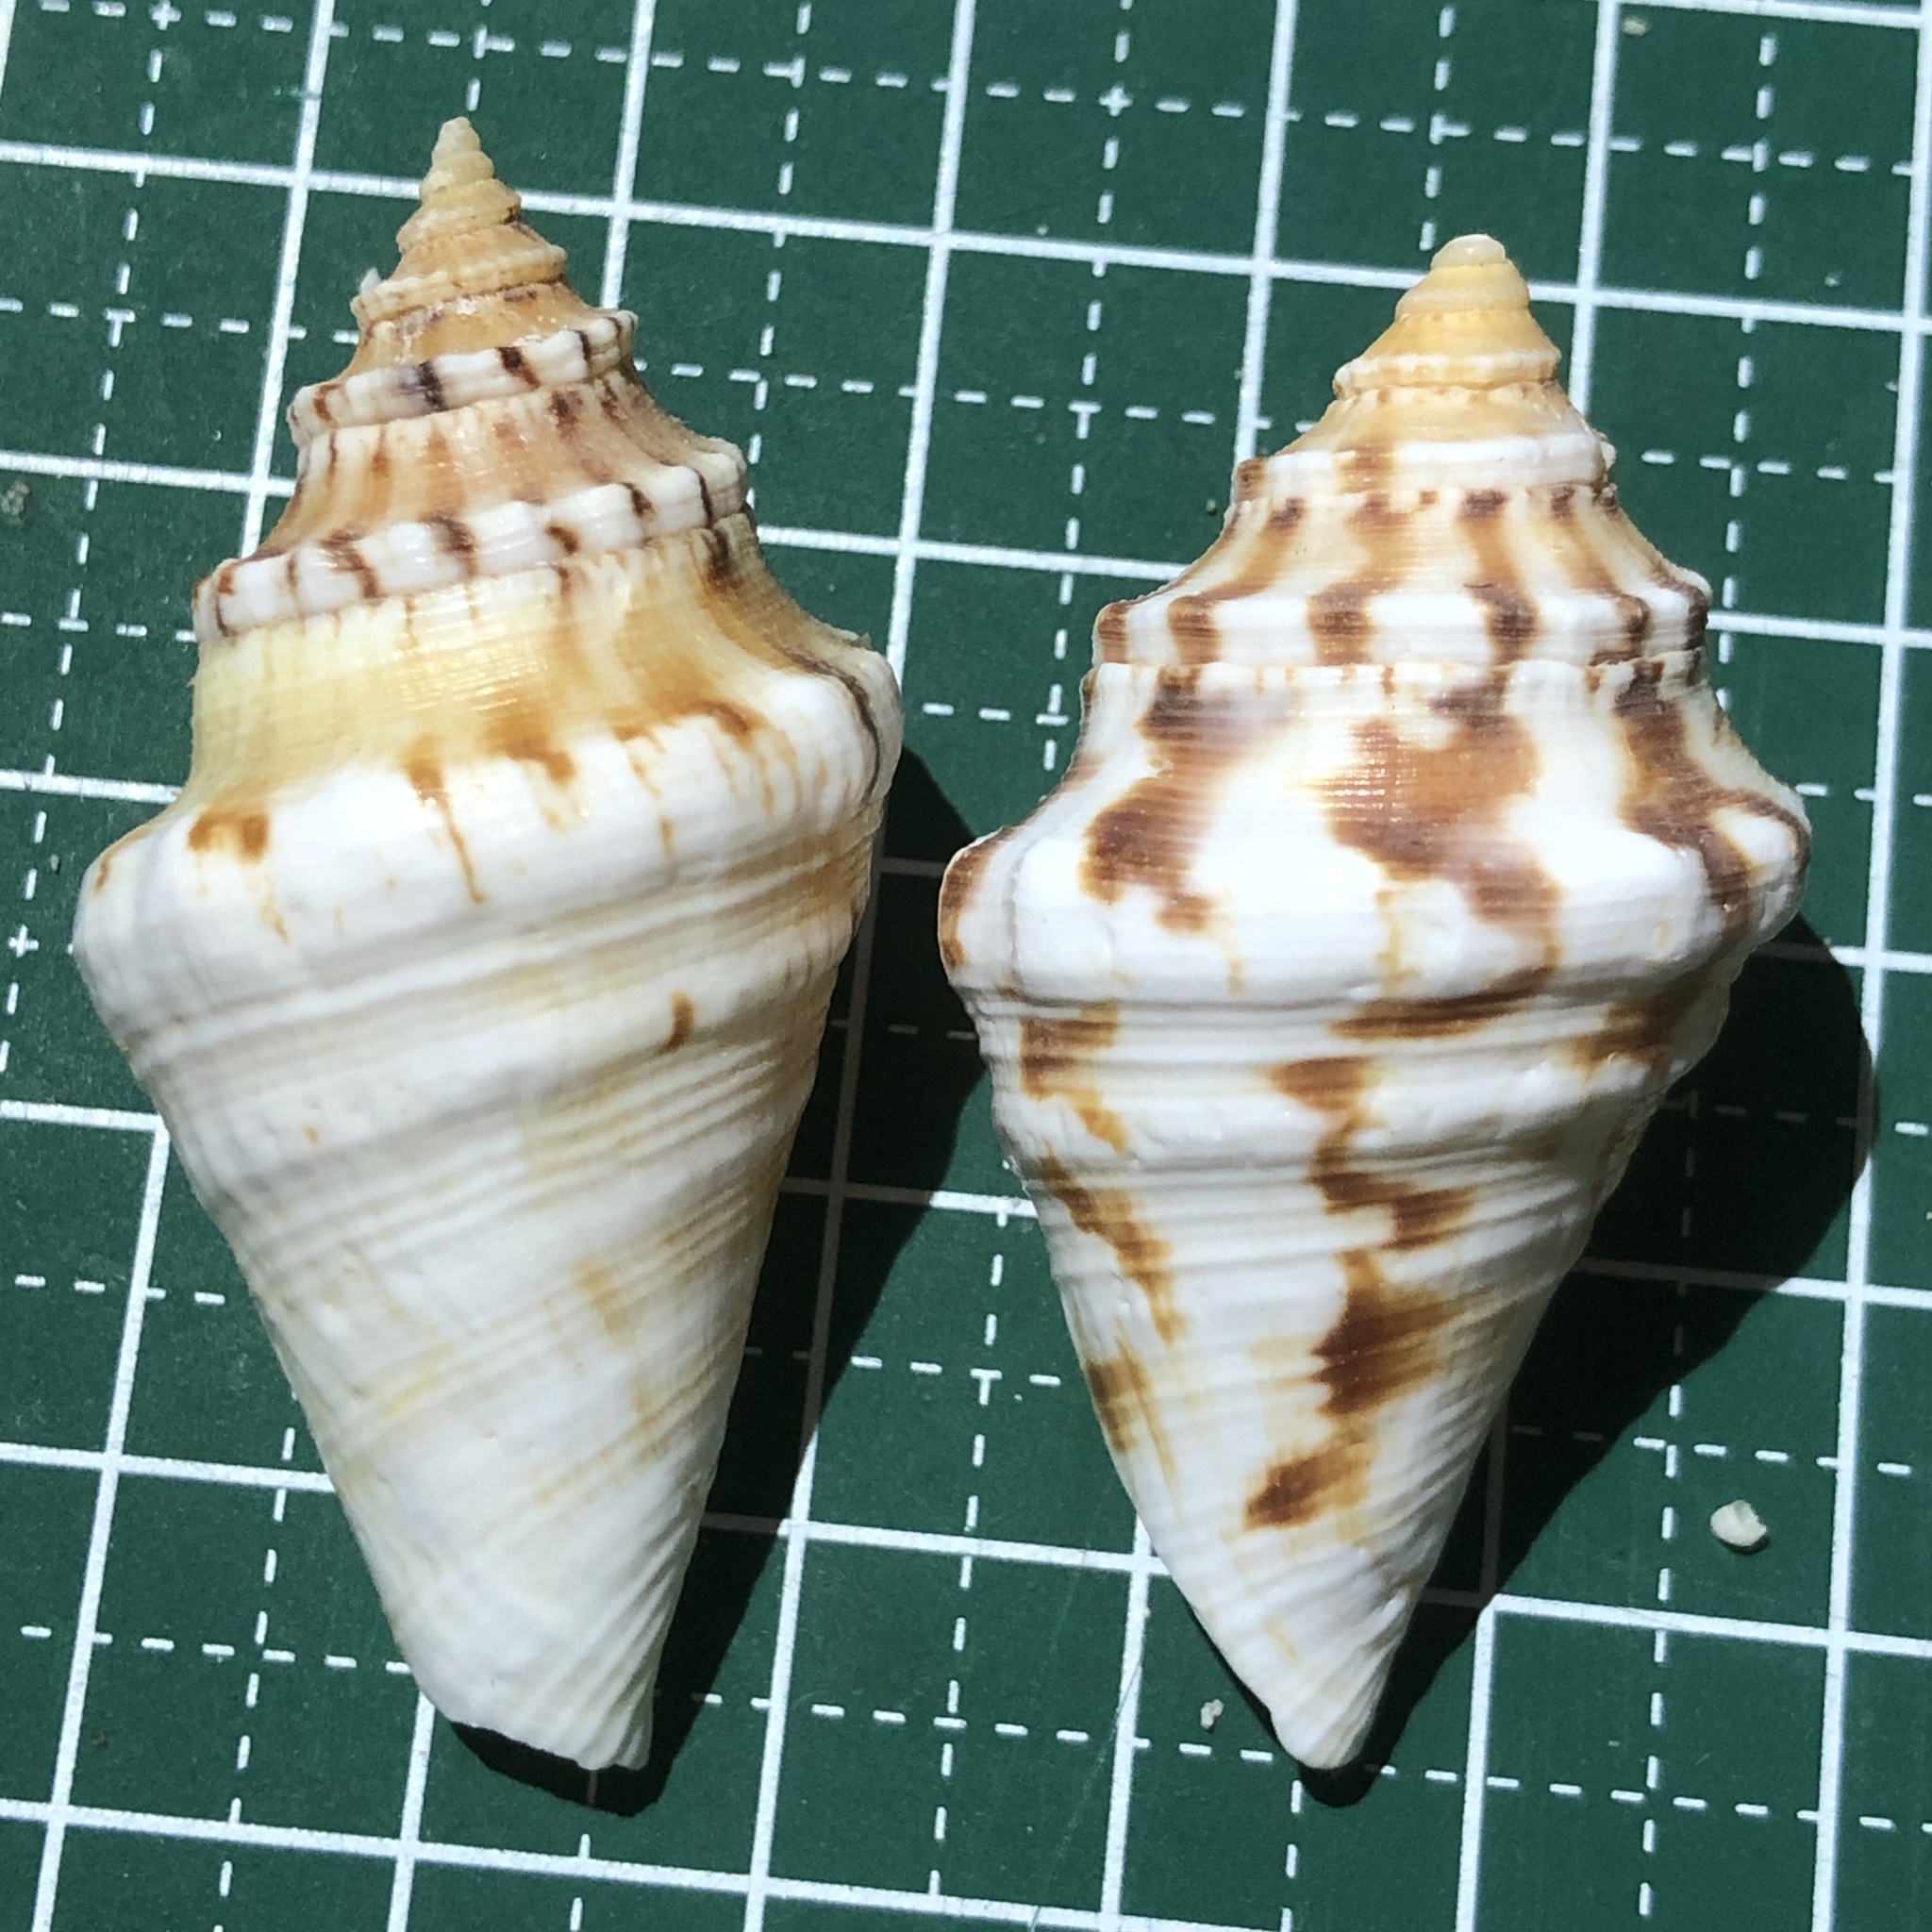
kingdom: Animalia
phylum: Mollusca
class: Gastropoda
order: Littorinimorpha
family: Strombidae
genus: Lambis
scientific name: Lambis lambis
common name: Common spider conch
